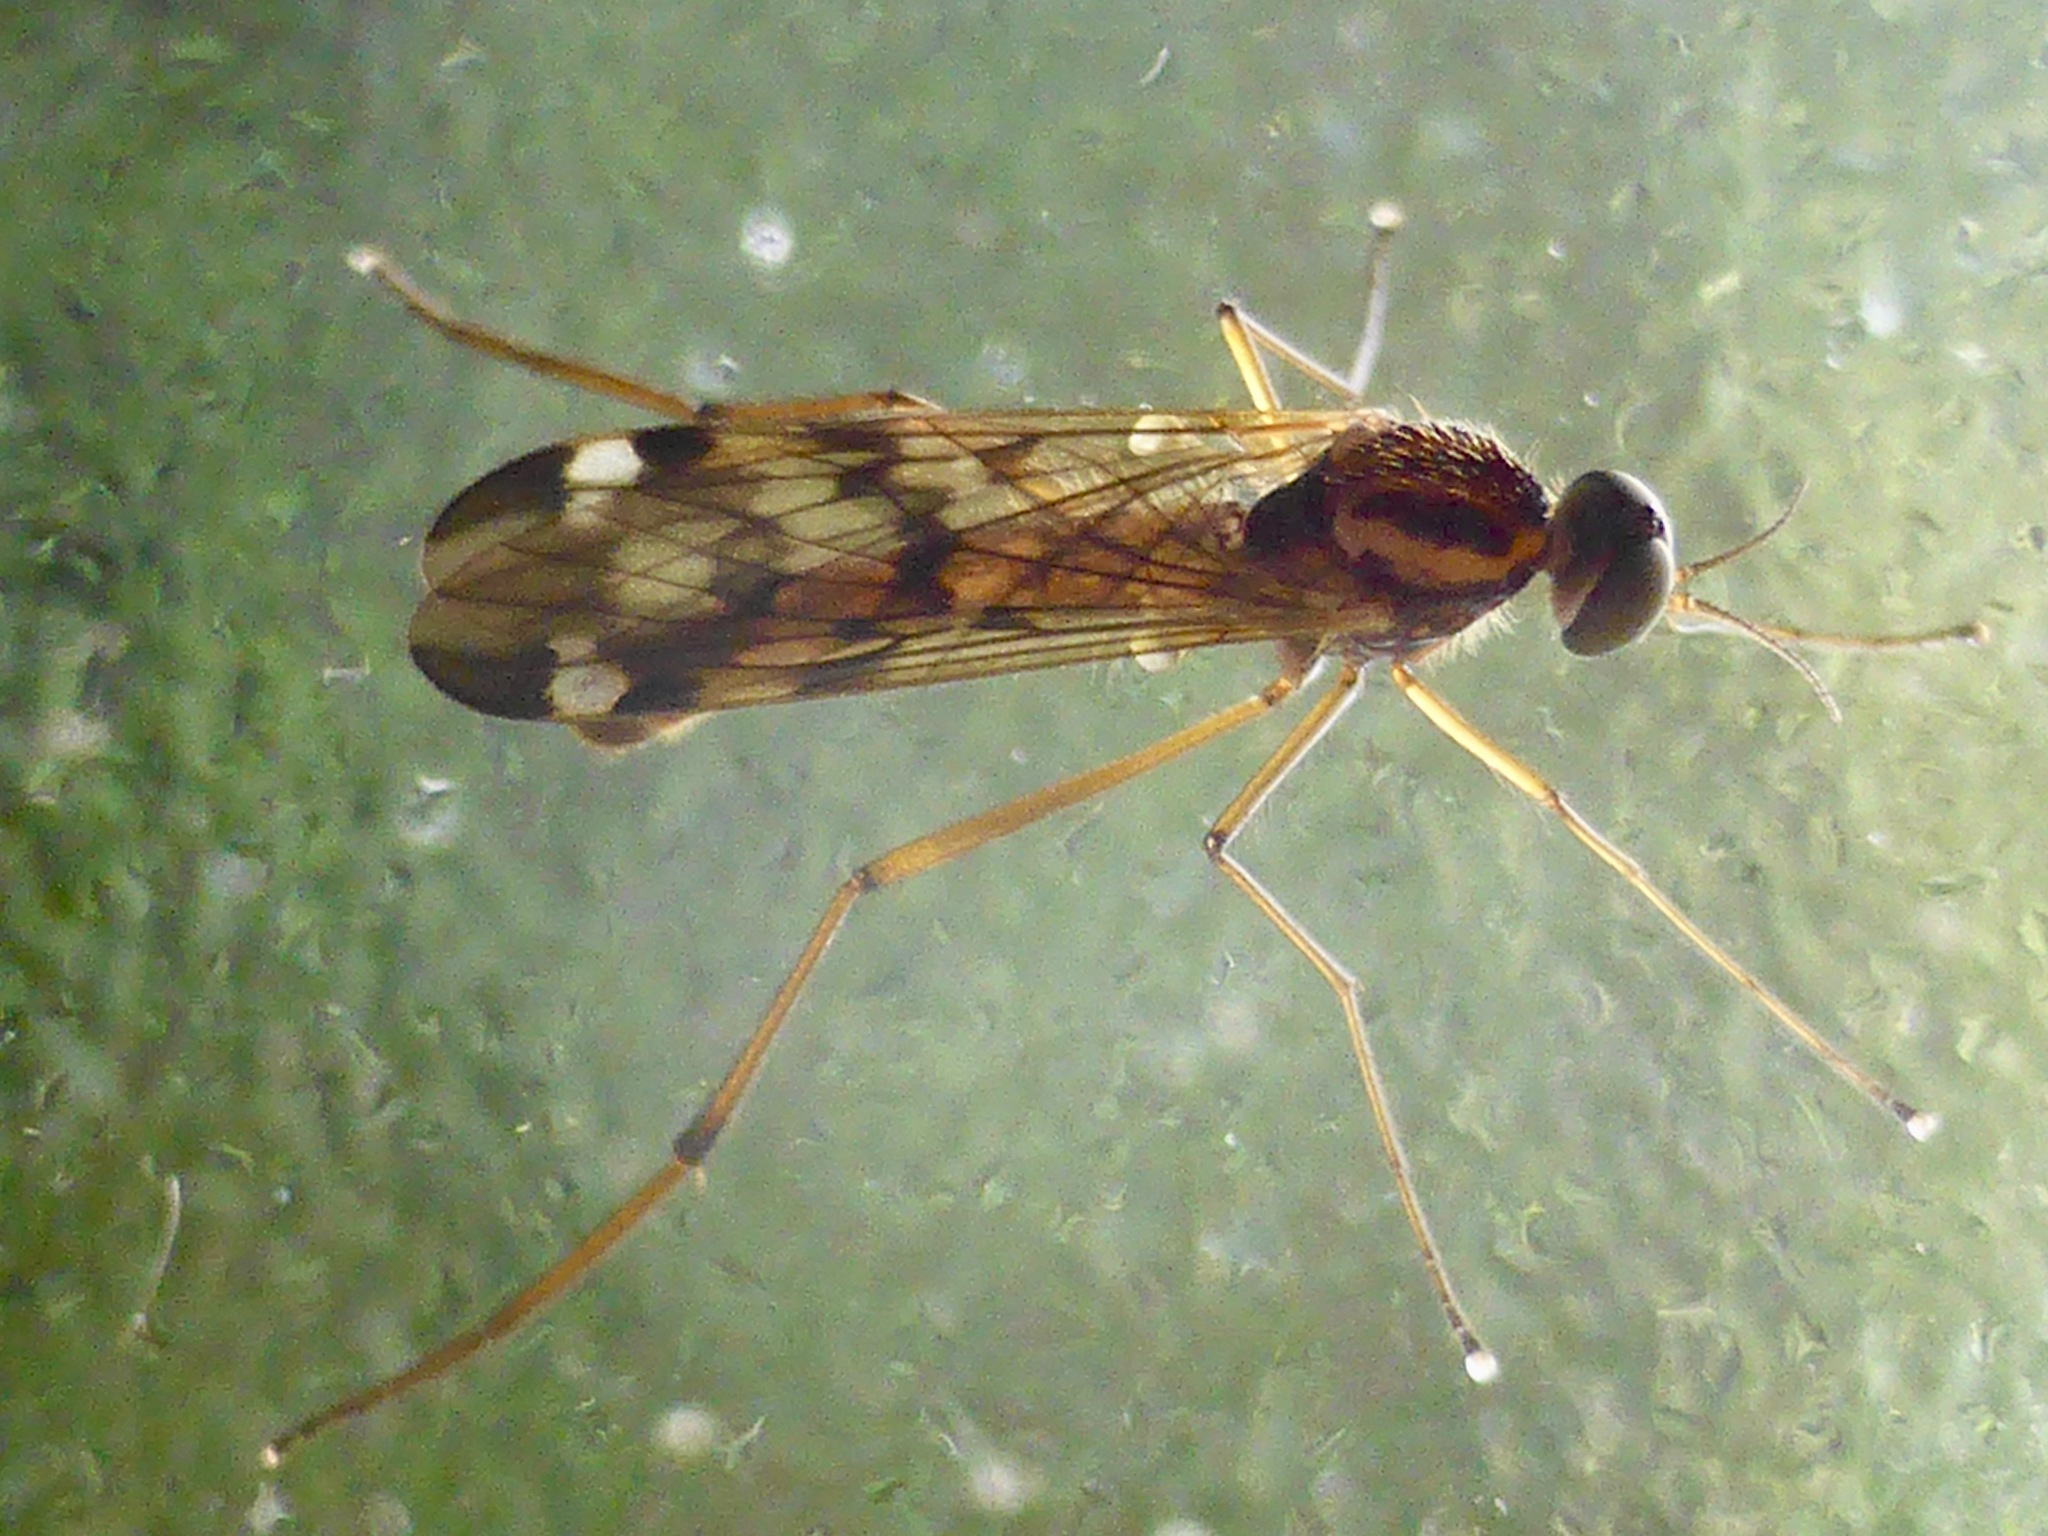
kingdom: Animalia
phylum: Arthropoda
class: Insecta
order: Diptera
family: Anisopodidae
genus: Sylvicola
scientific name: Sylvicola notatus
